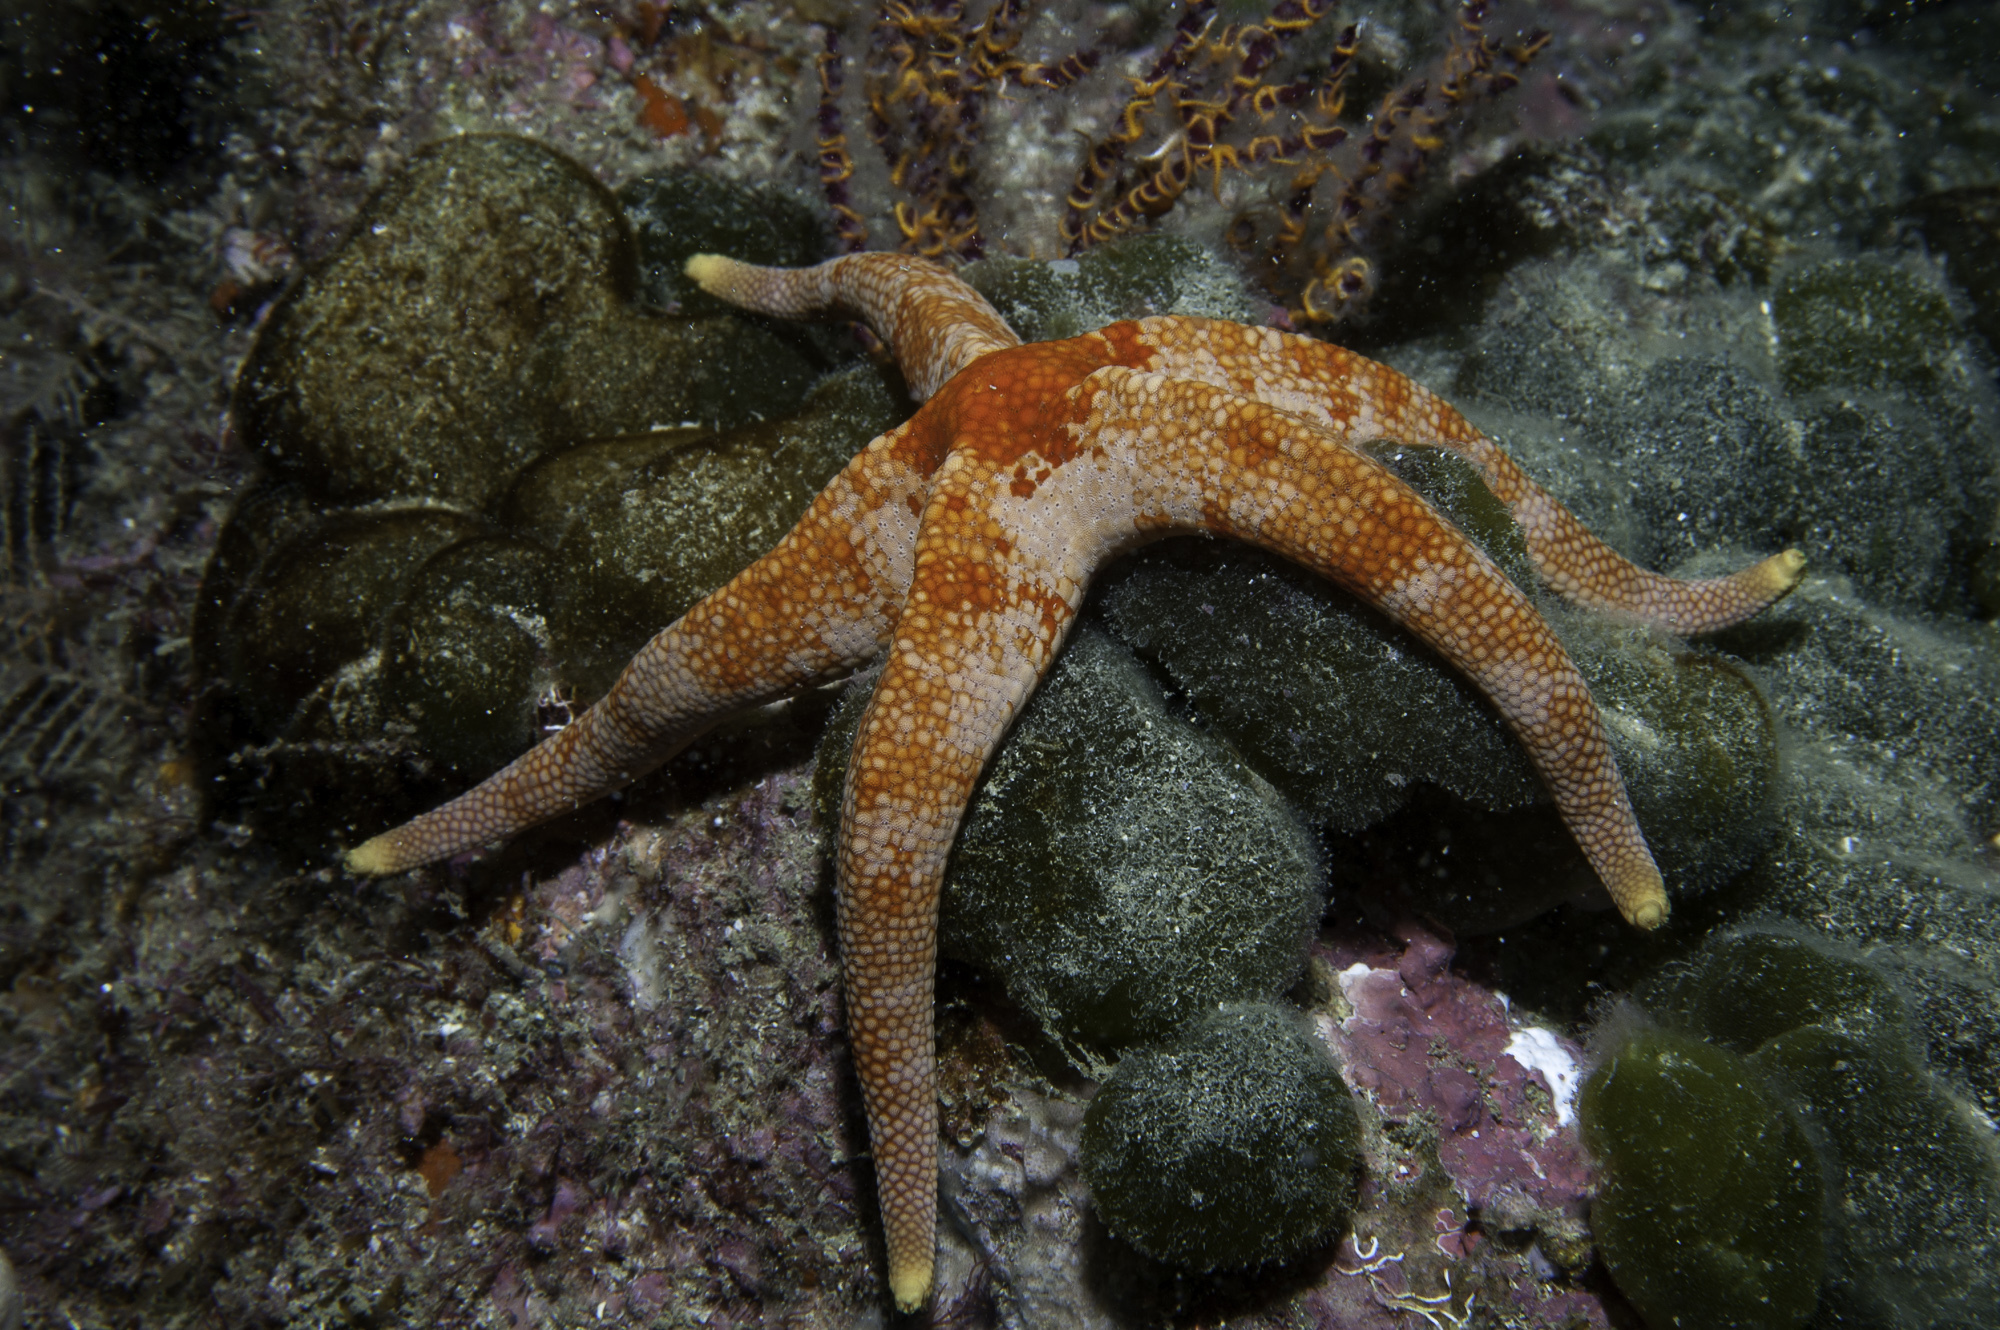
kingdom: Animalia
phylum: Echinodermata
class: Asteroidea
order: Valvatida
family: Ophidiasteridae
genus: Narcissia
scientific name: Narcissia trigonaria
